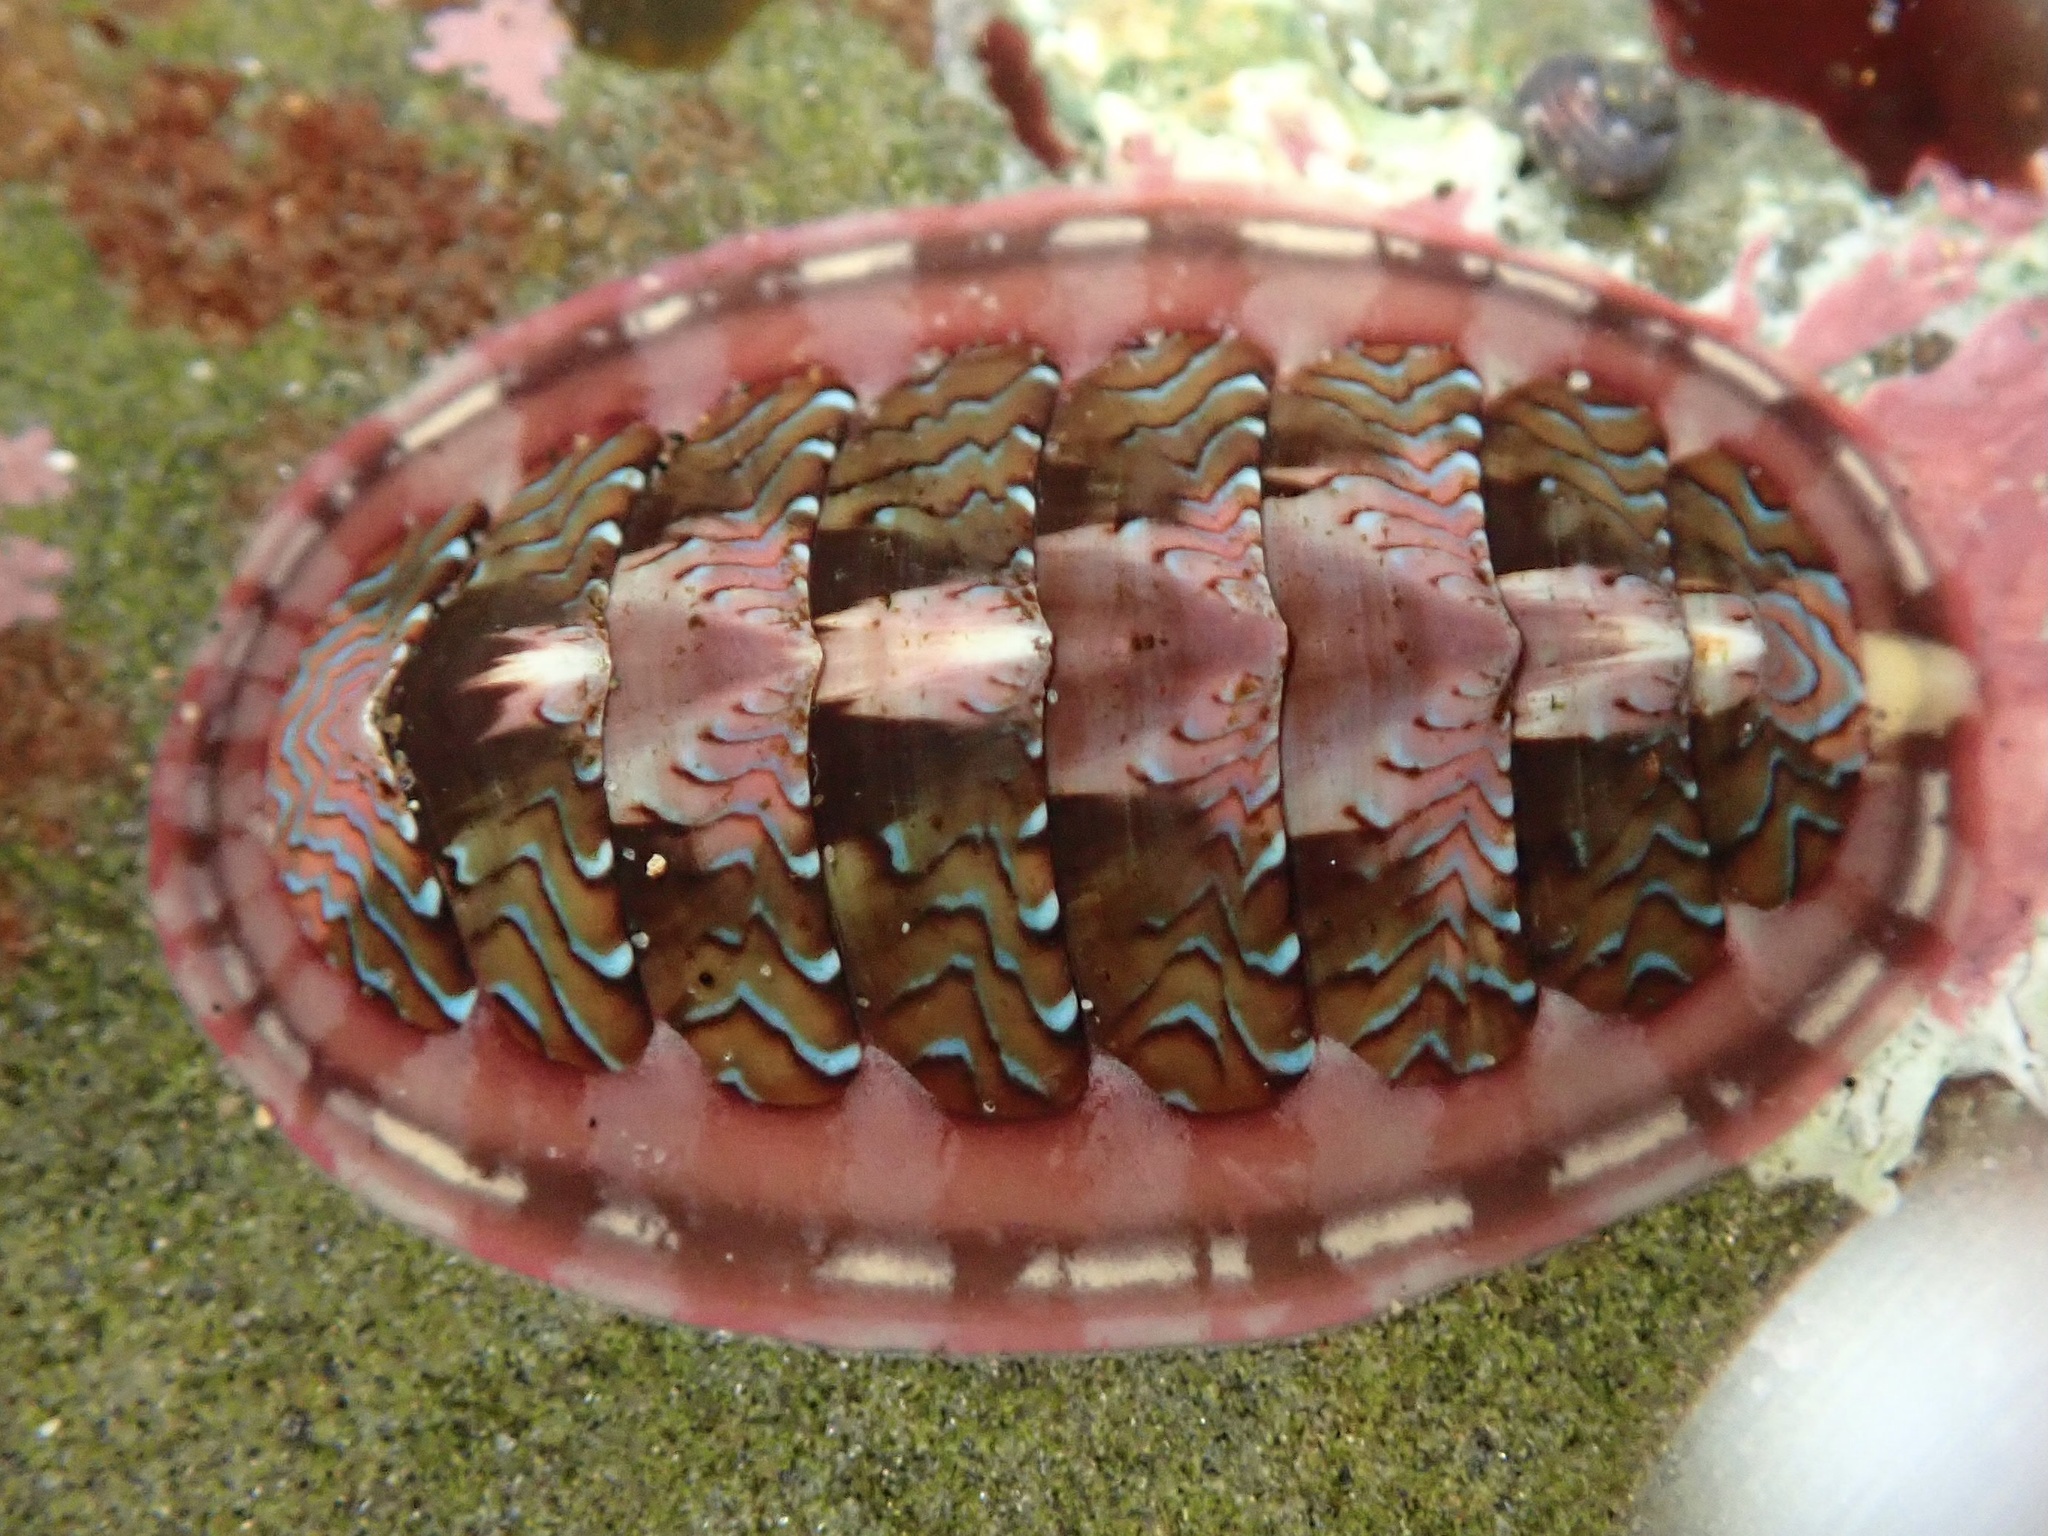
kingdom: Animalia
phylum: Mollusca
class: Polyplacophora
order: Chitonida
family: Tonicellidae
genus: Tonicella
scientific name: Tonicella lokii
